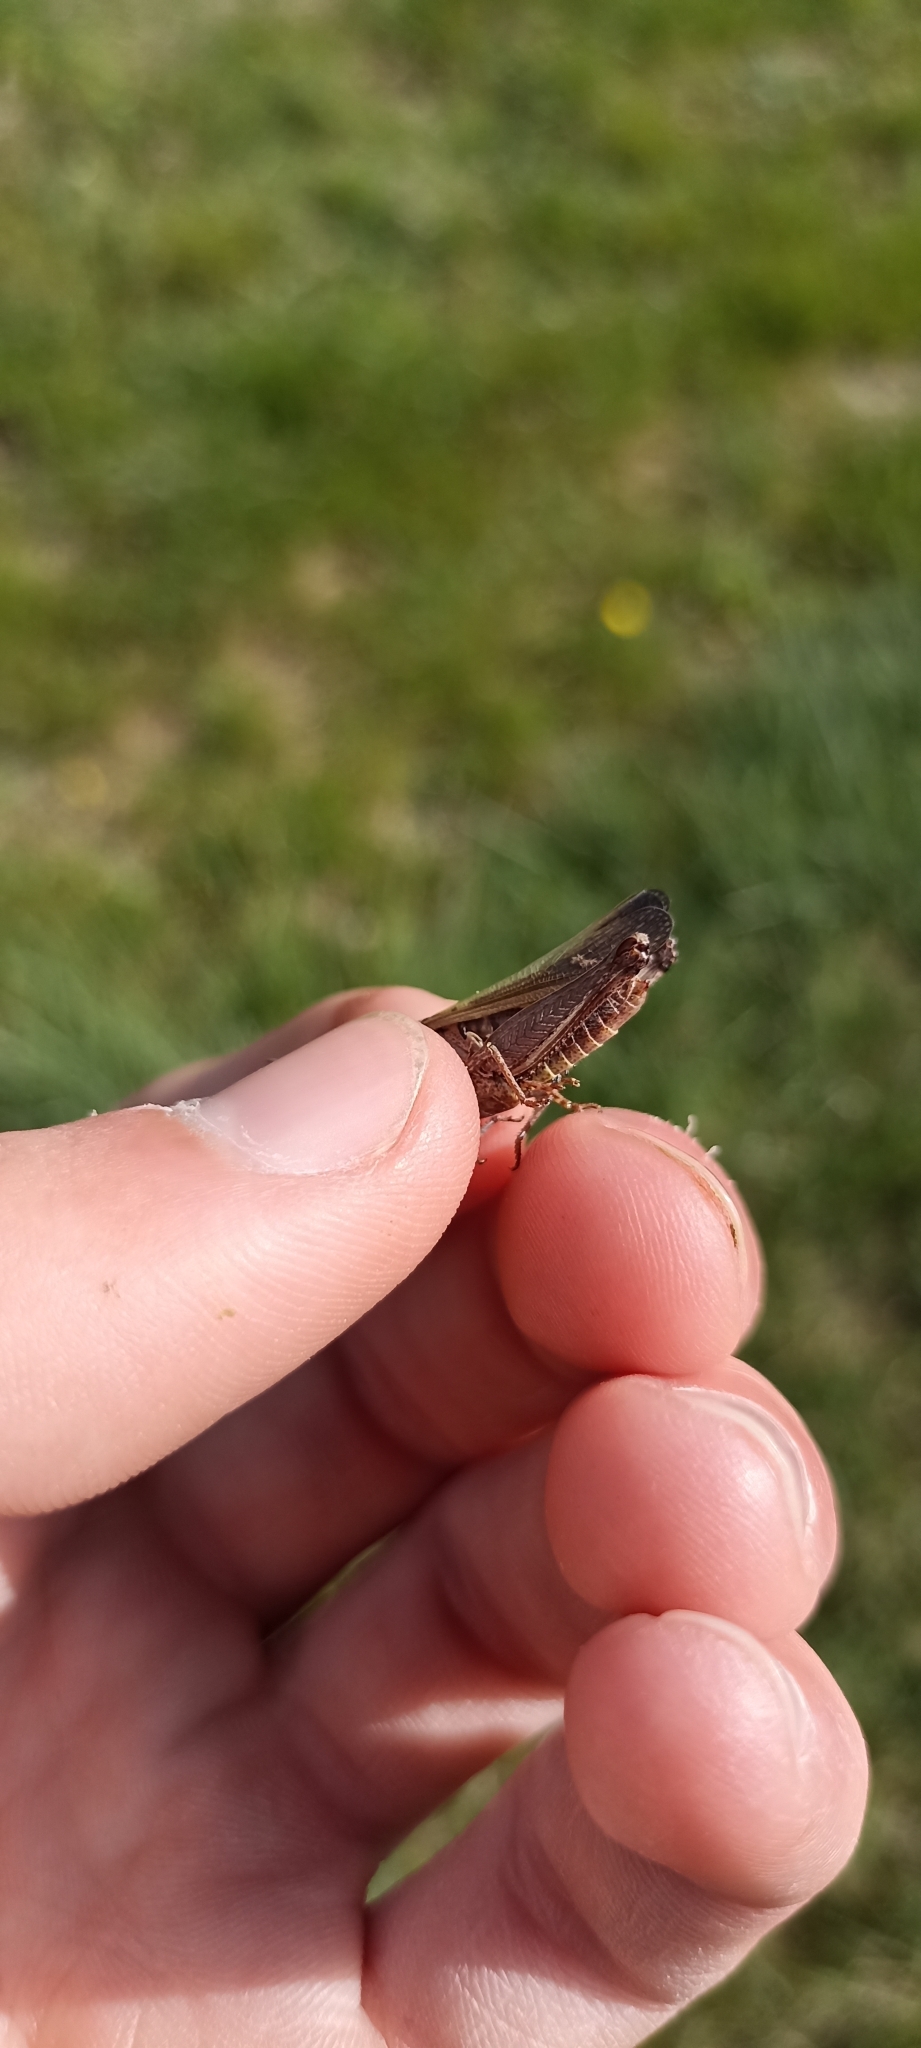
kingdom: Animalia
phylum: Arthropoda
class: Insecta
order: Orthoptera
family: Acrididae
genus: Omocestus
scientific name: Omocestus rufipes
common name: Woodland grasshopper
